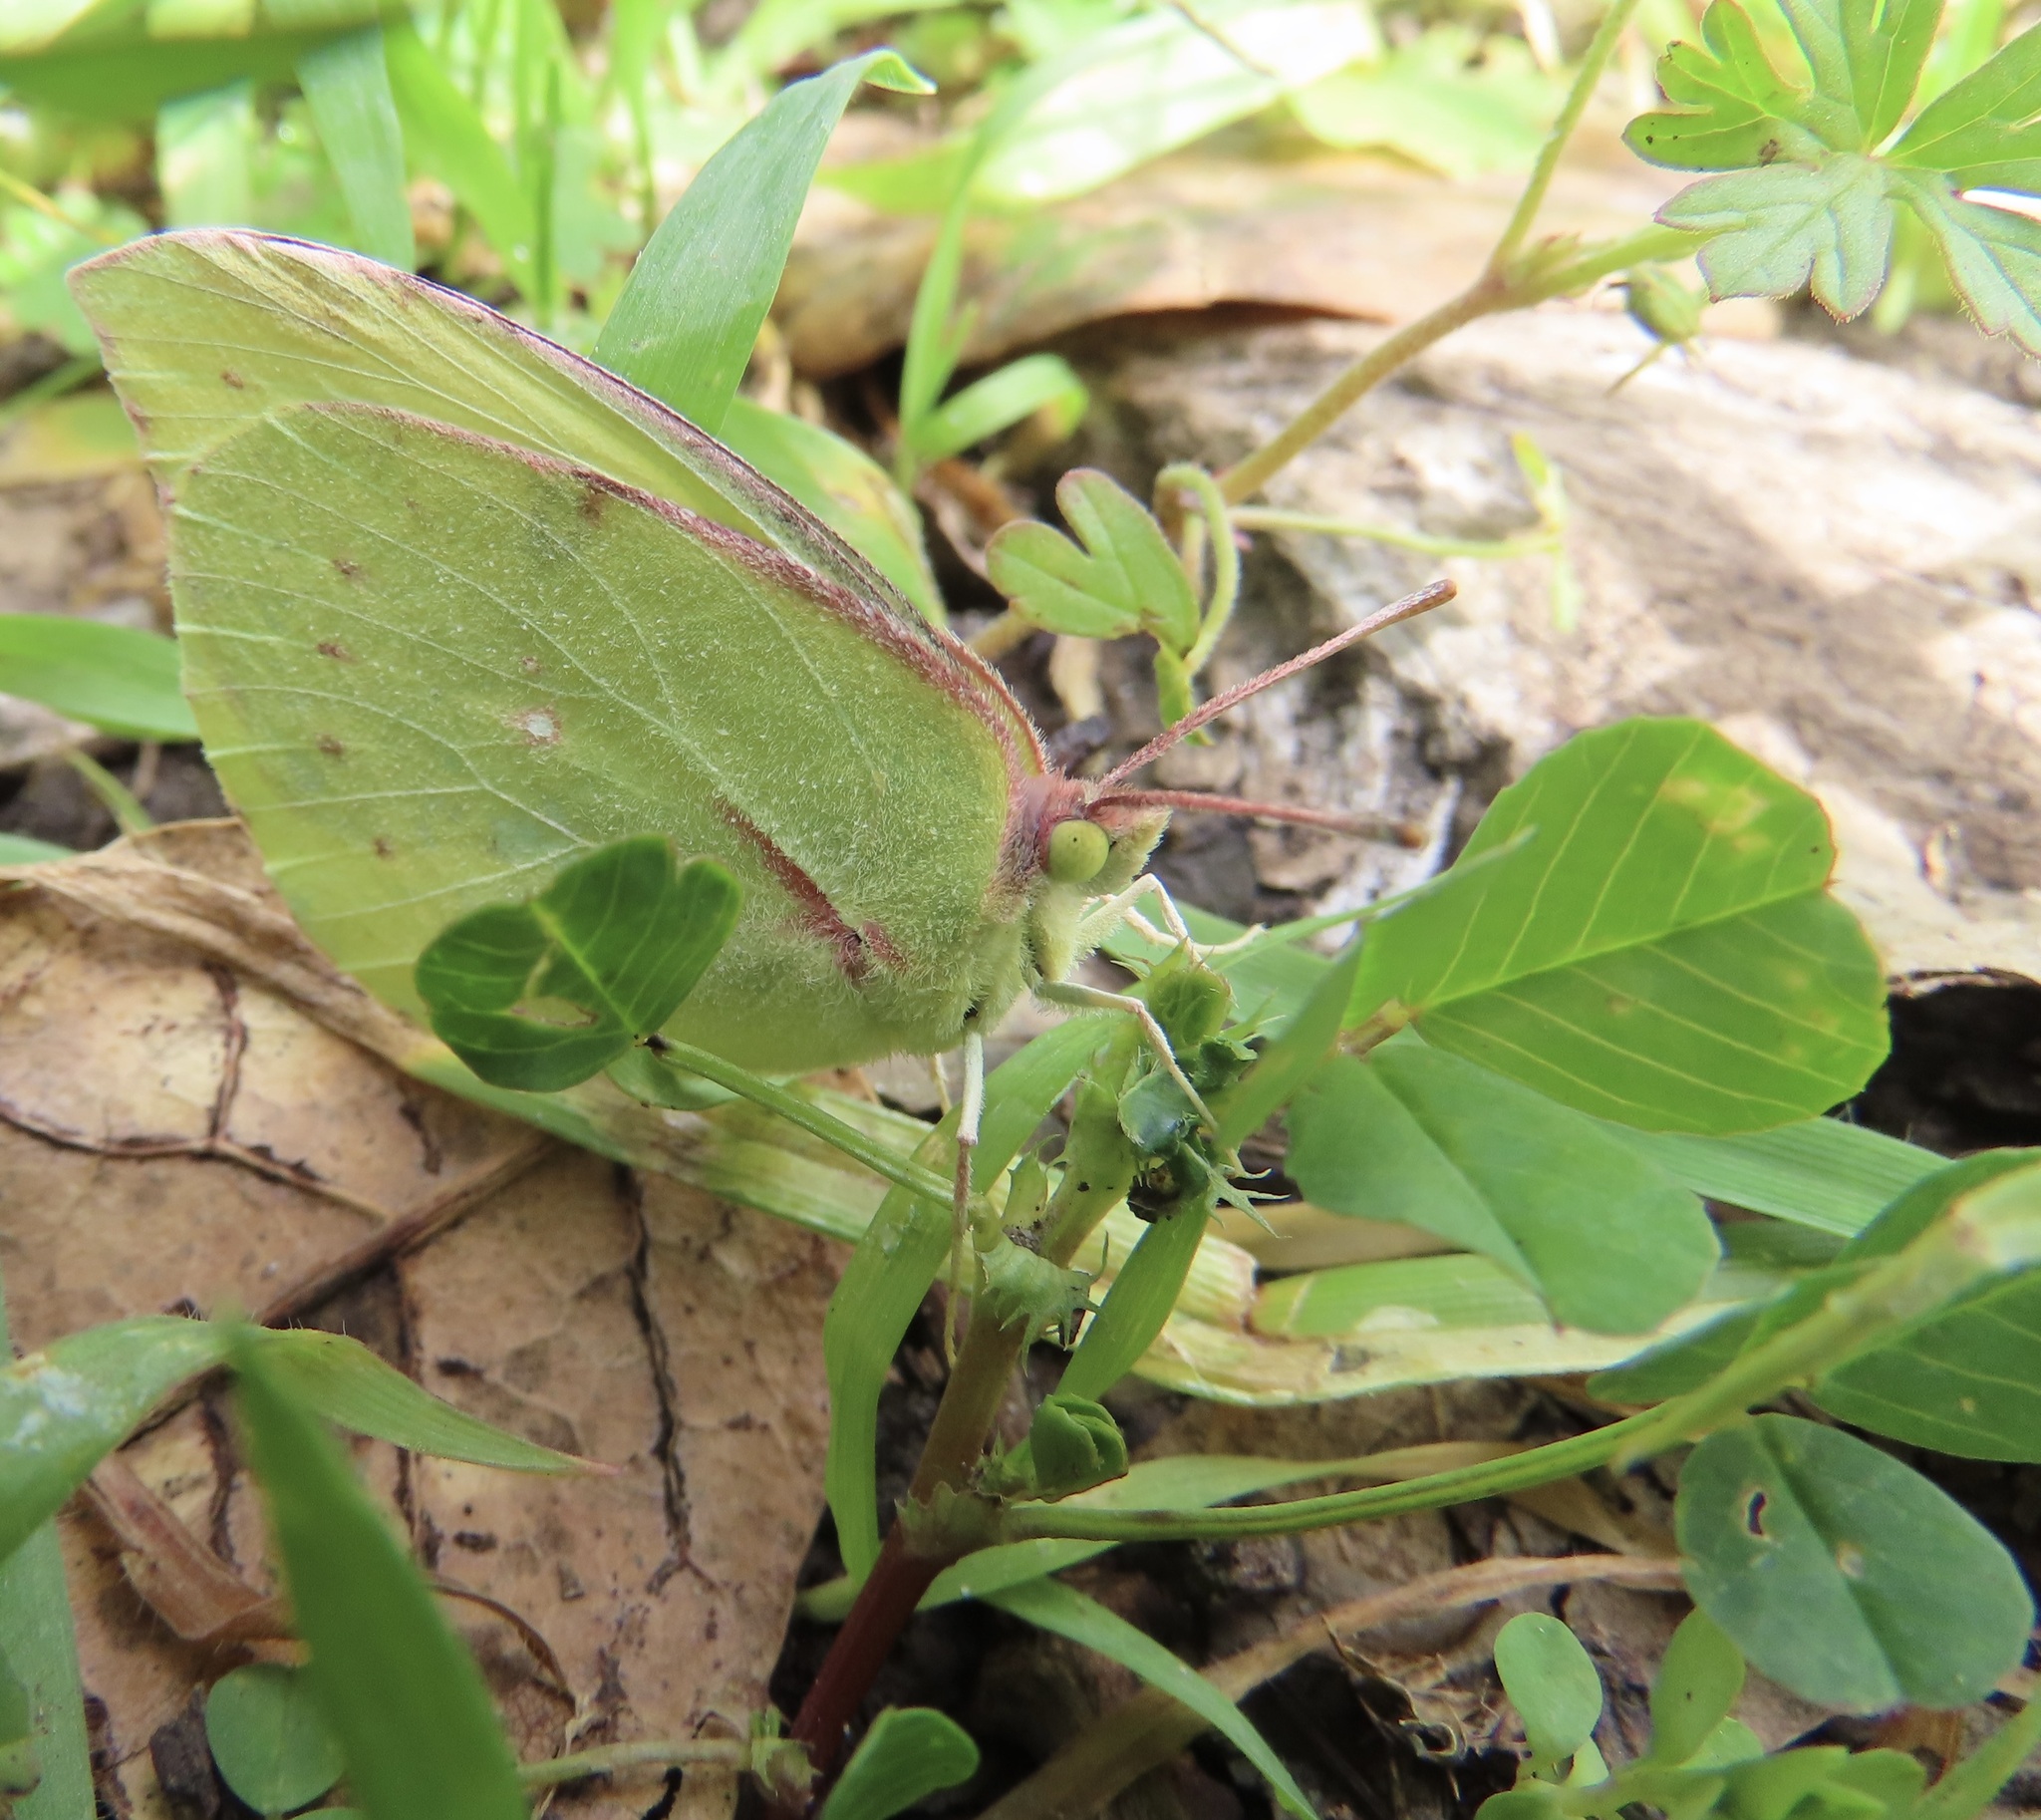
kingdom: Animalia
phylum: Arthropoda
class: Insecta
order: Lepidoptera
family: Pieridae
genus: Zerene
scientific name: Zerene eurydice
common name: California dogface
